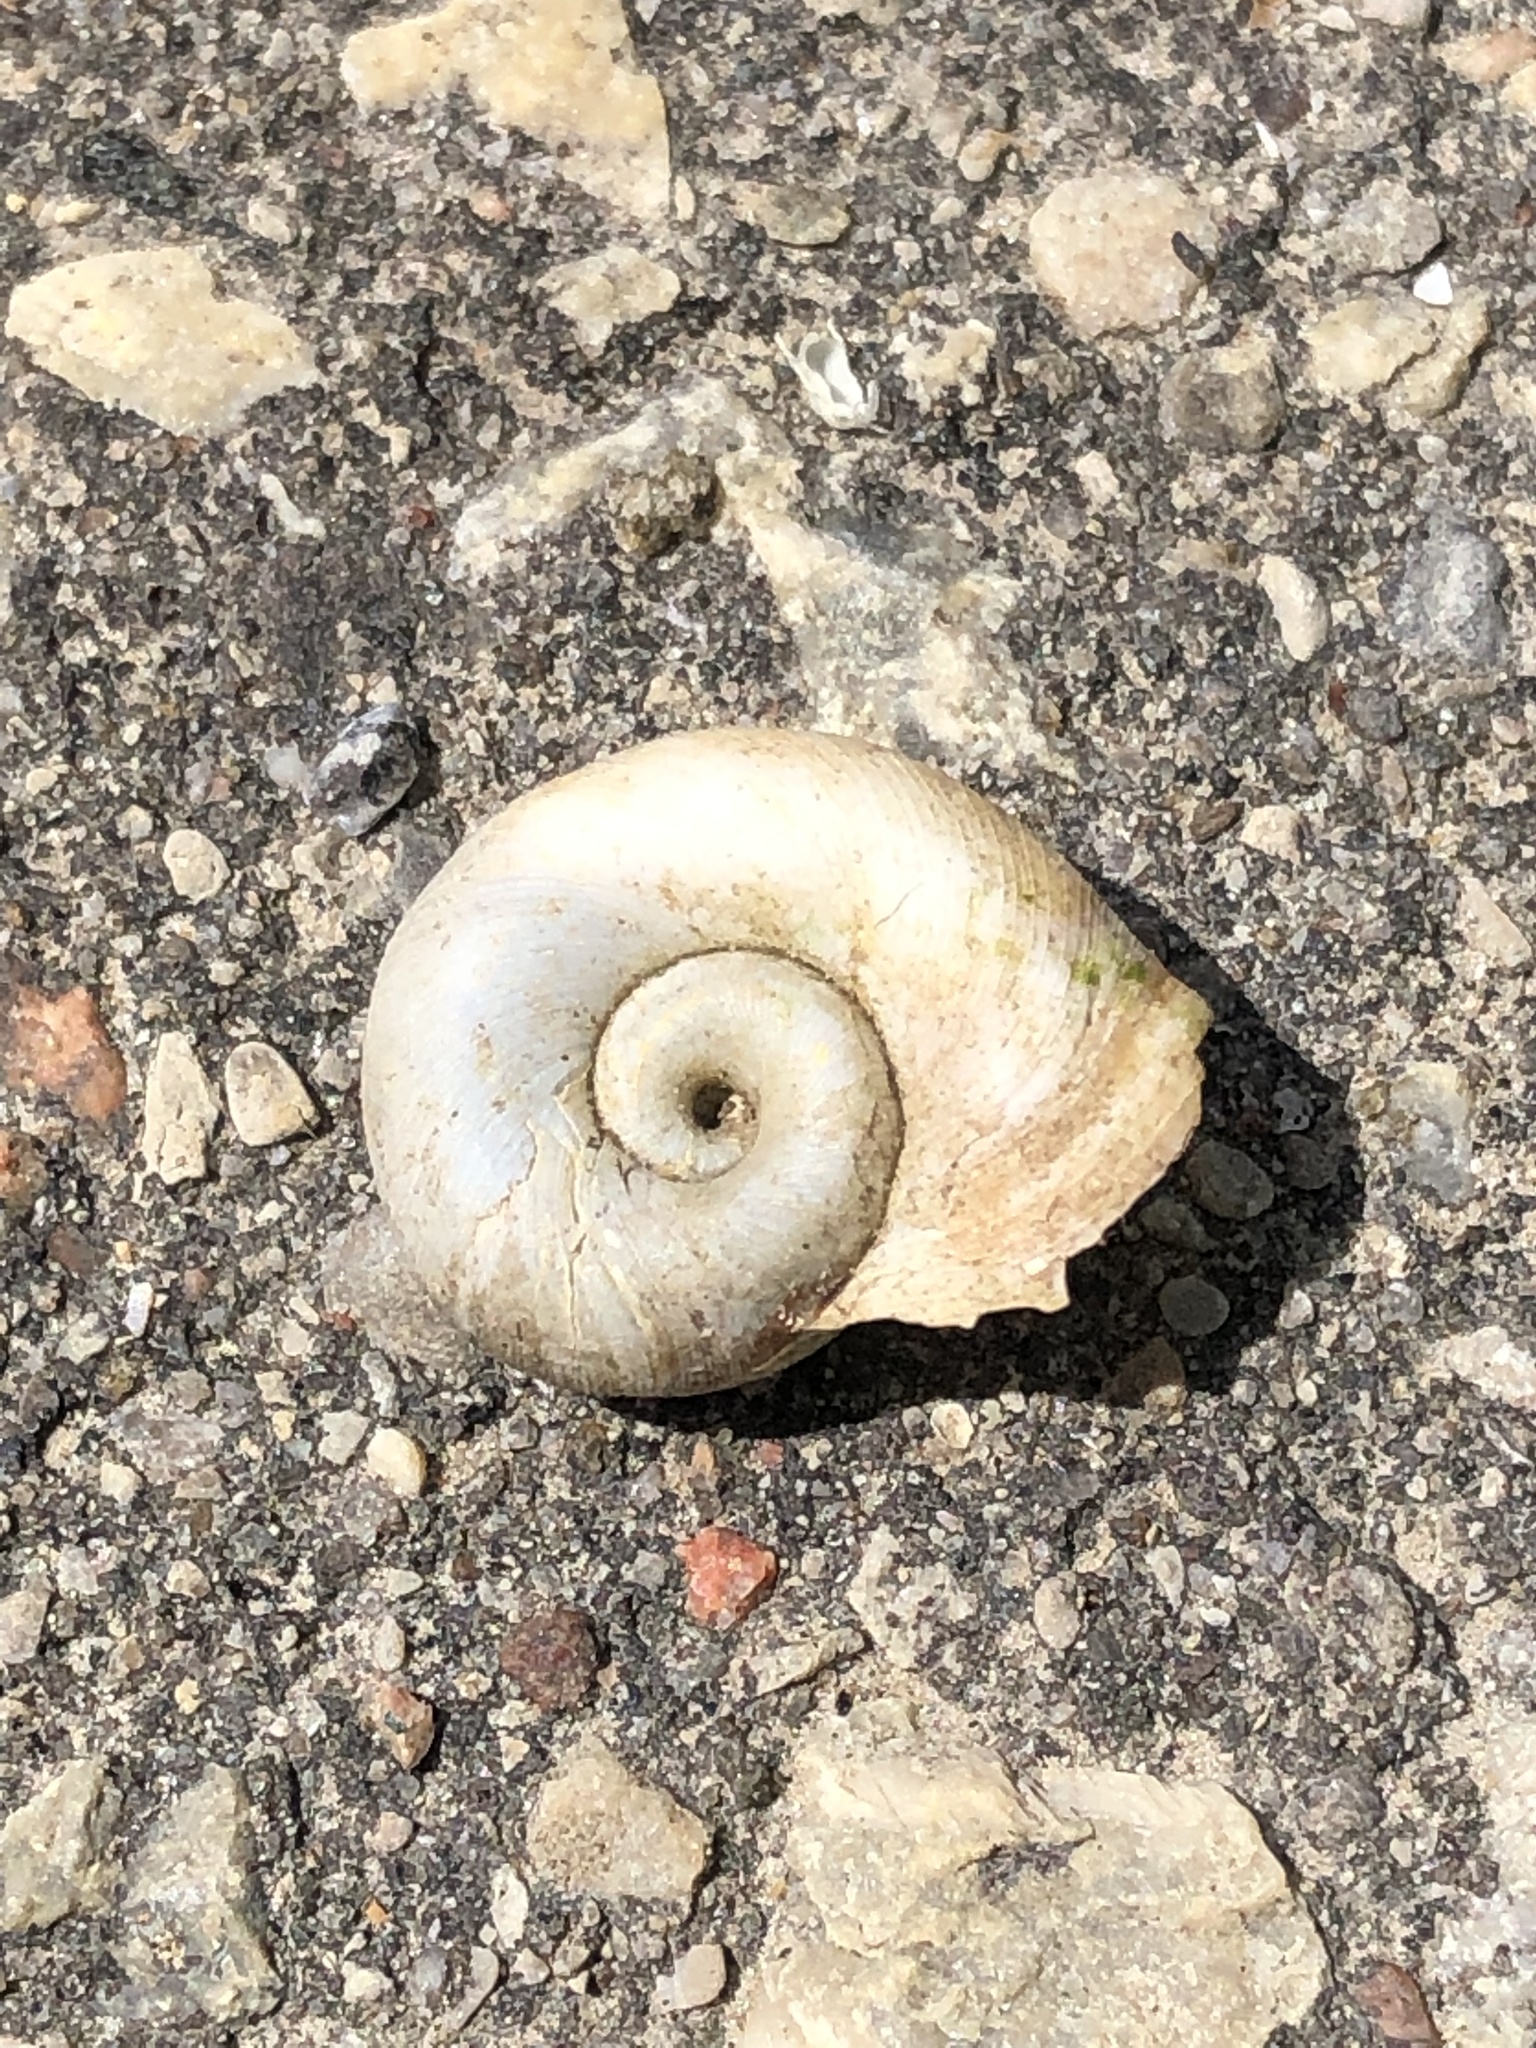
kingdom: Animalia
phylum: Mollusca
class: Gastropoda
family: Planorbidae
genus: Planorbella
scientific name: Planorbella campanulata
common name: Bellmouth ramshorn
